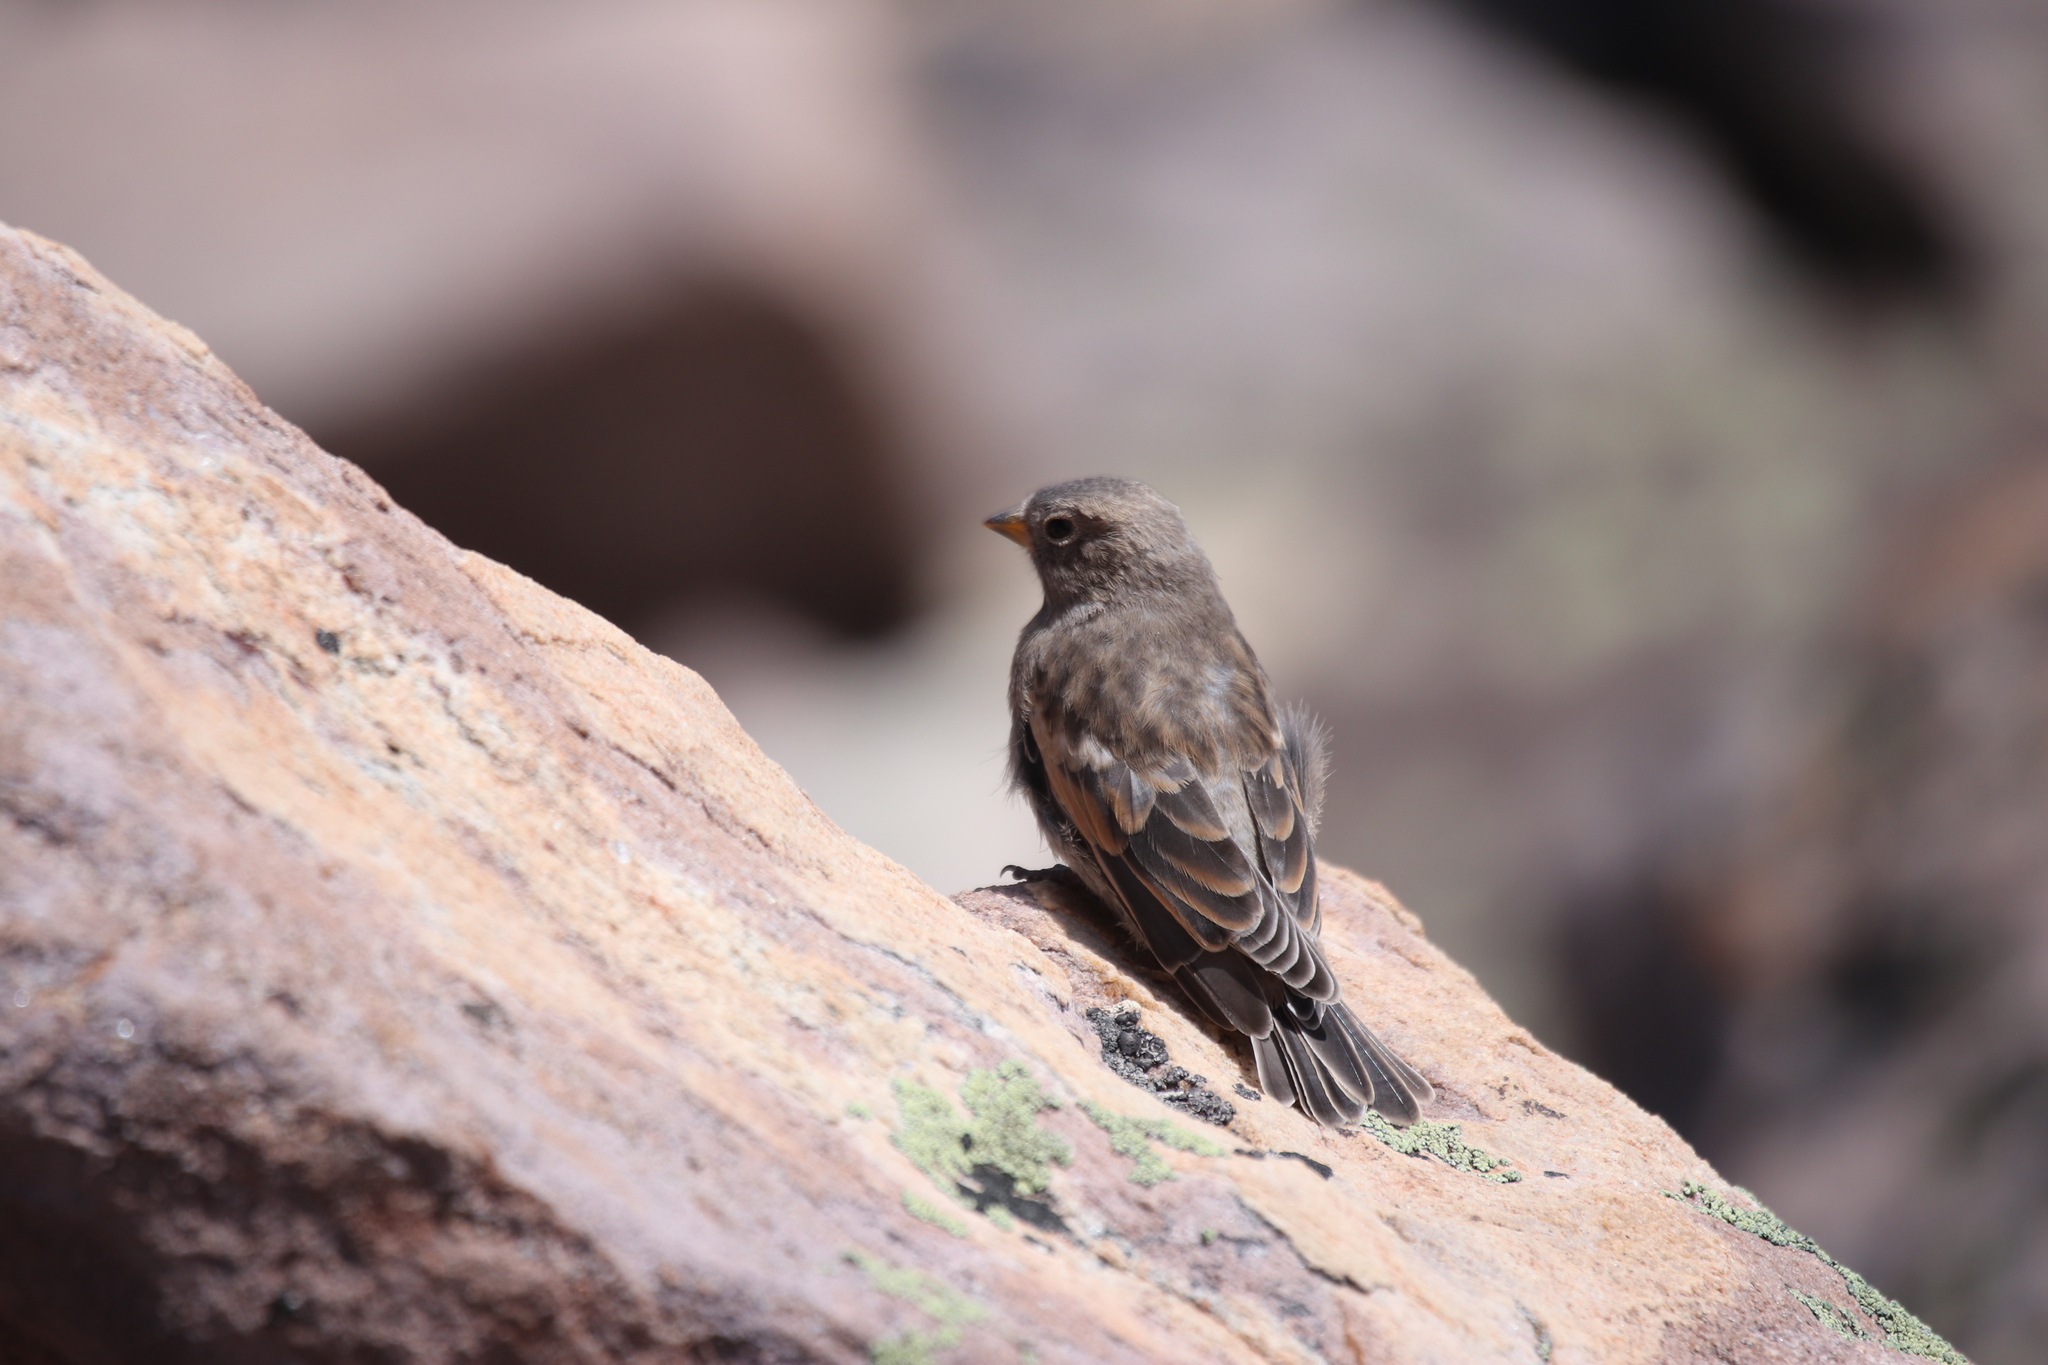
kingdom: Animalia
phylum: Chordata
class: Aves
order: Passeriformes
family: Fringillidae
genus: Leucosticte
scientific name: Leucosticte atrata
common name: Black rosy-finch
